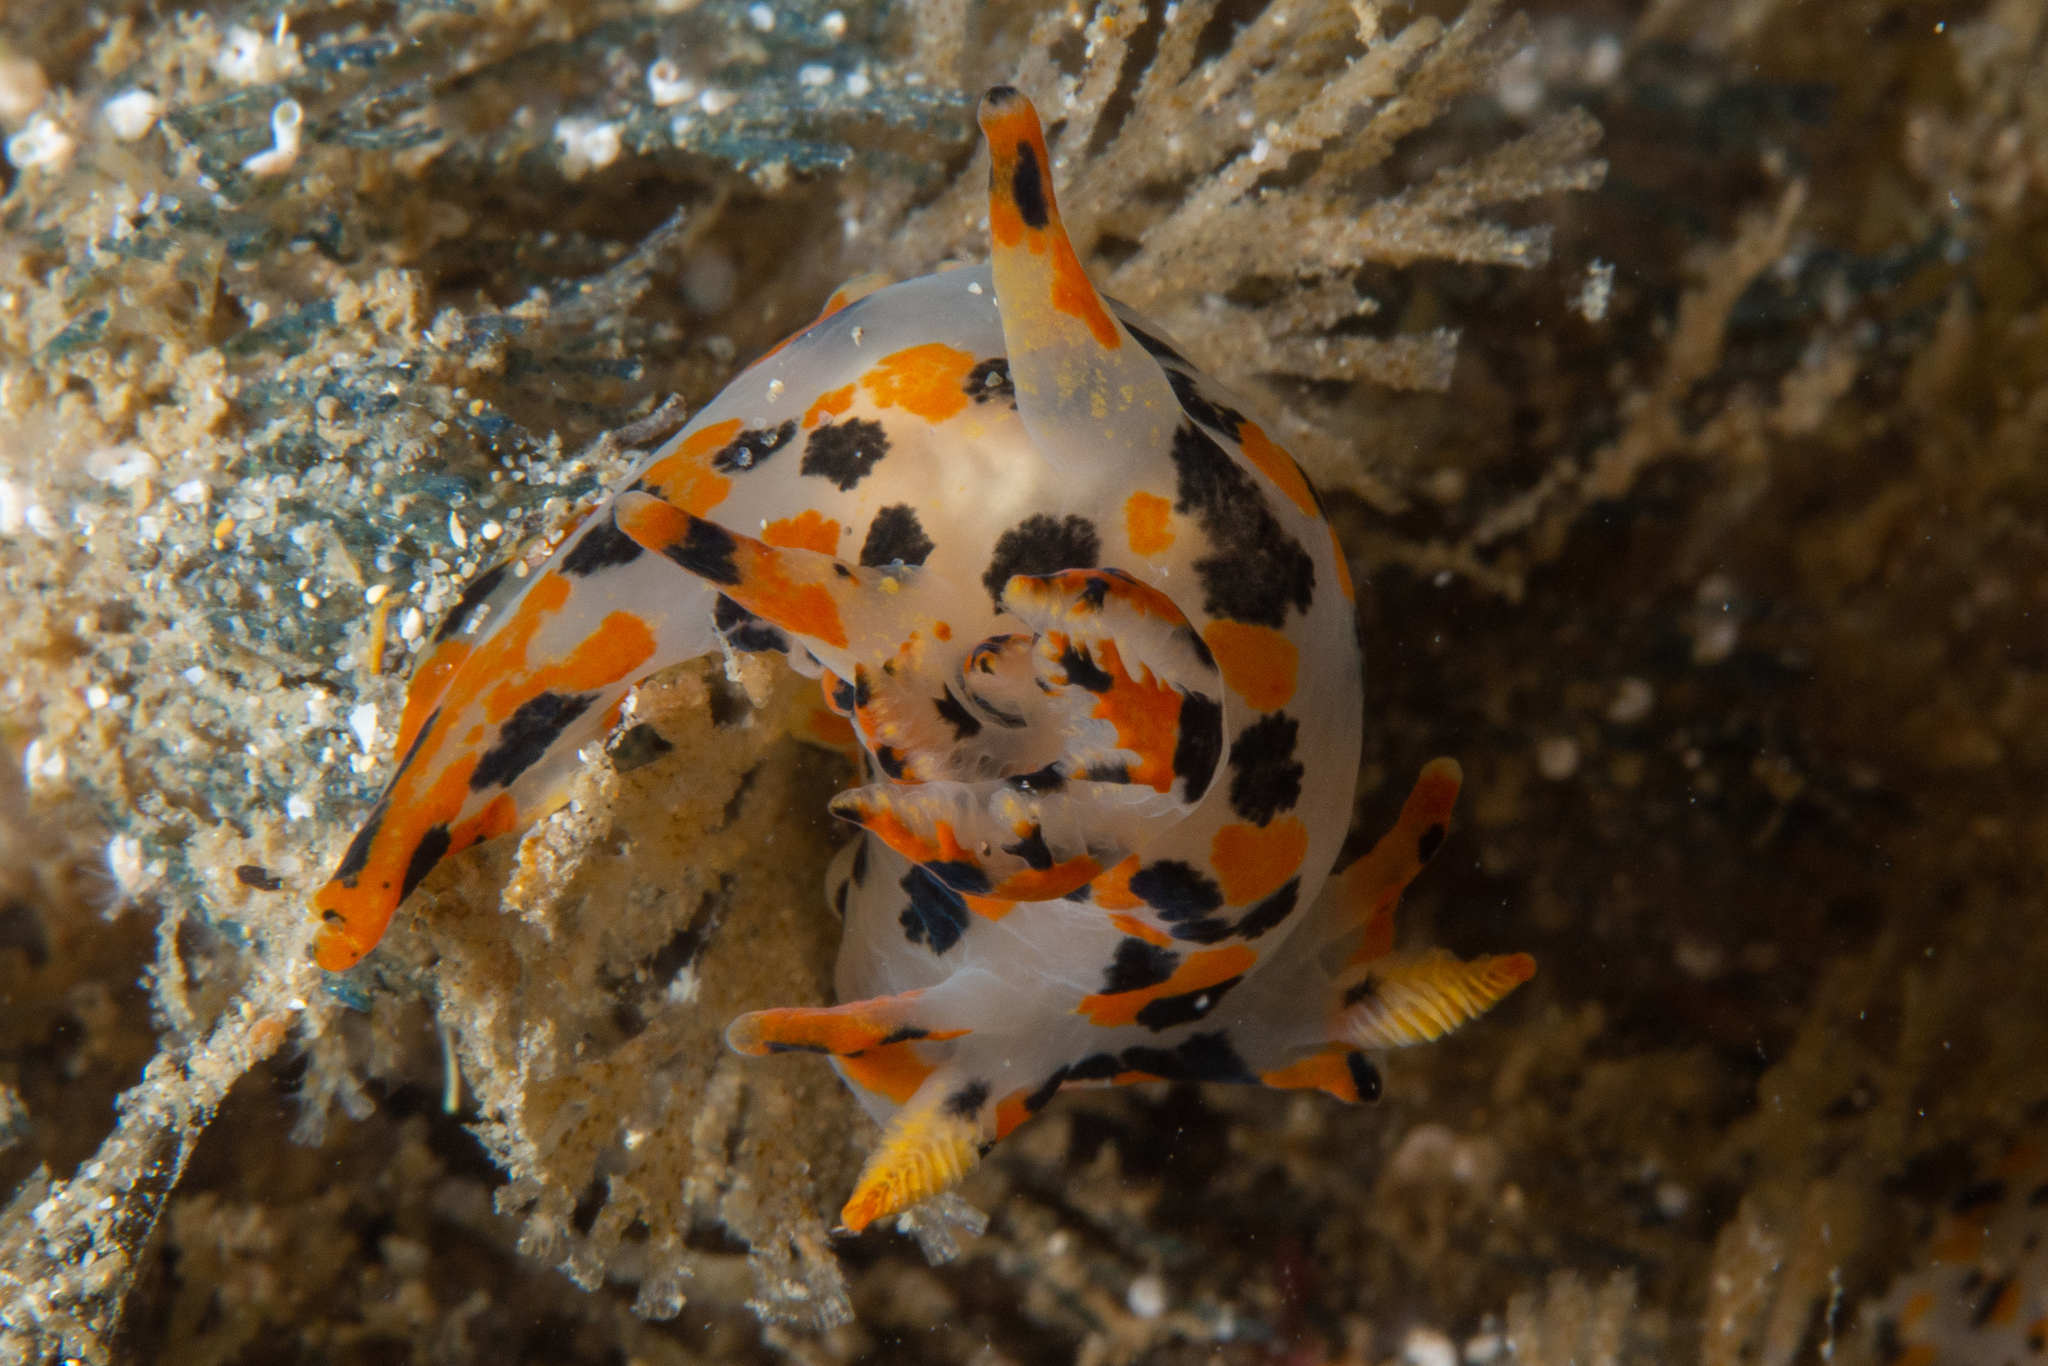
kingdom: Animalia
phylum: Mollusca
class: Gastropoda
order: Nudibranchia
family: Polyceridae
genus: Thecacera
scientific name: Thecacera pennigera
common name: Thecacera
